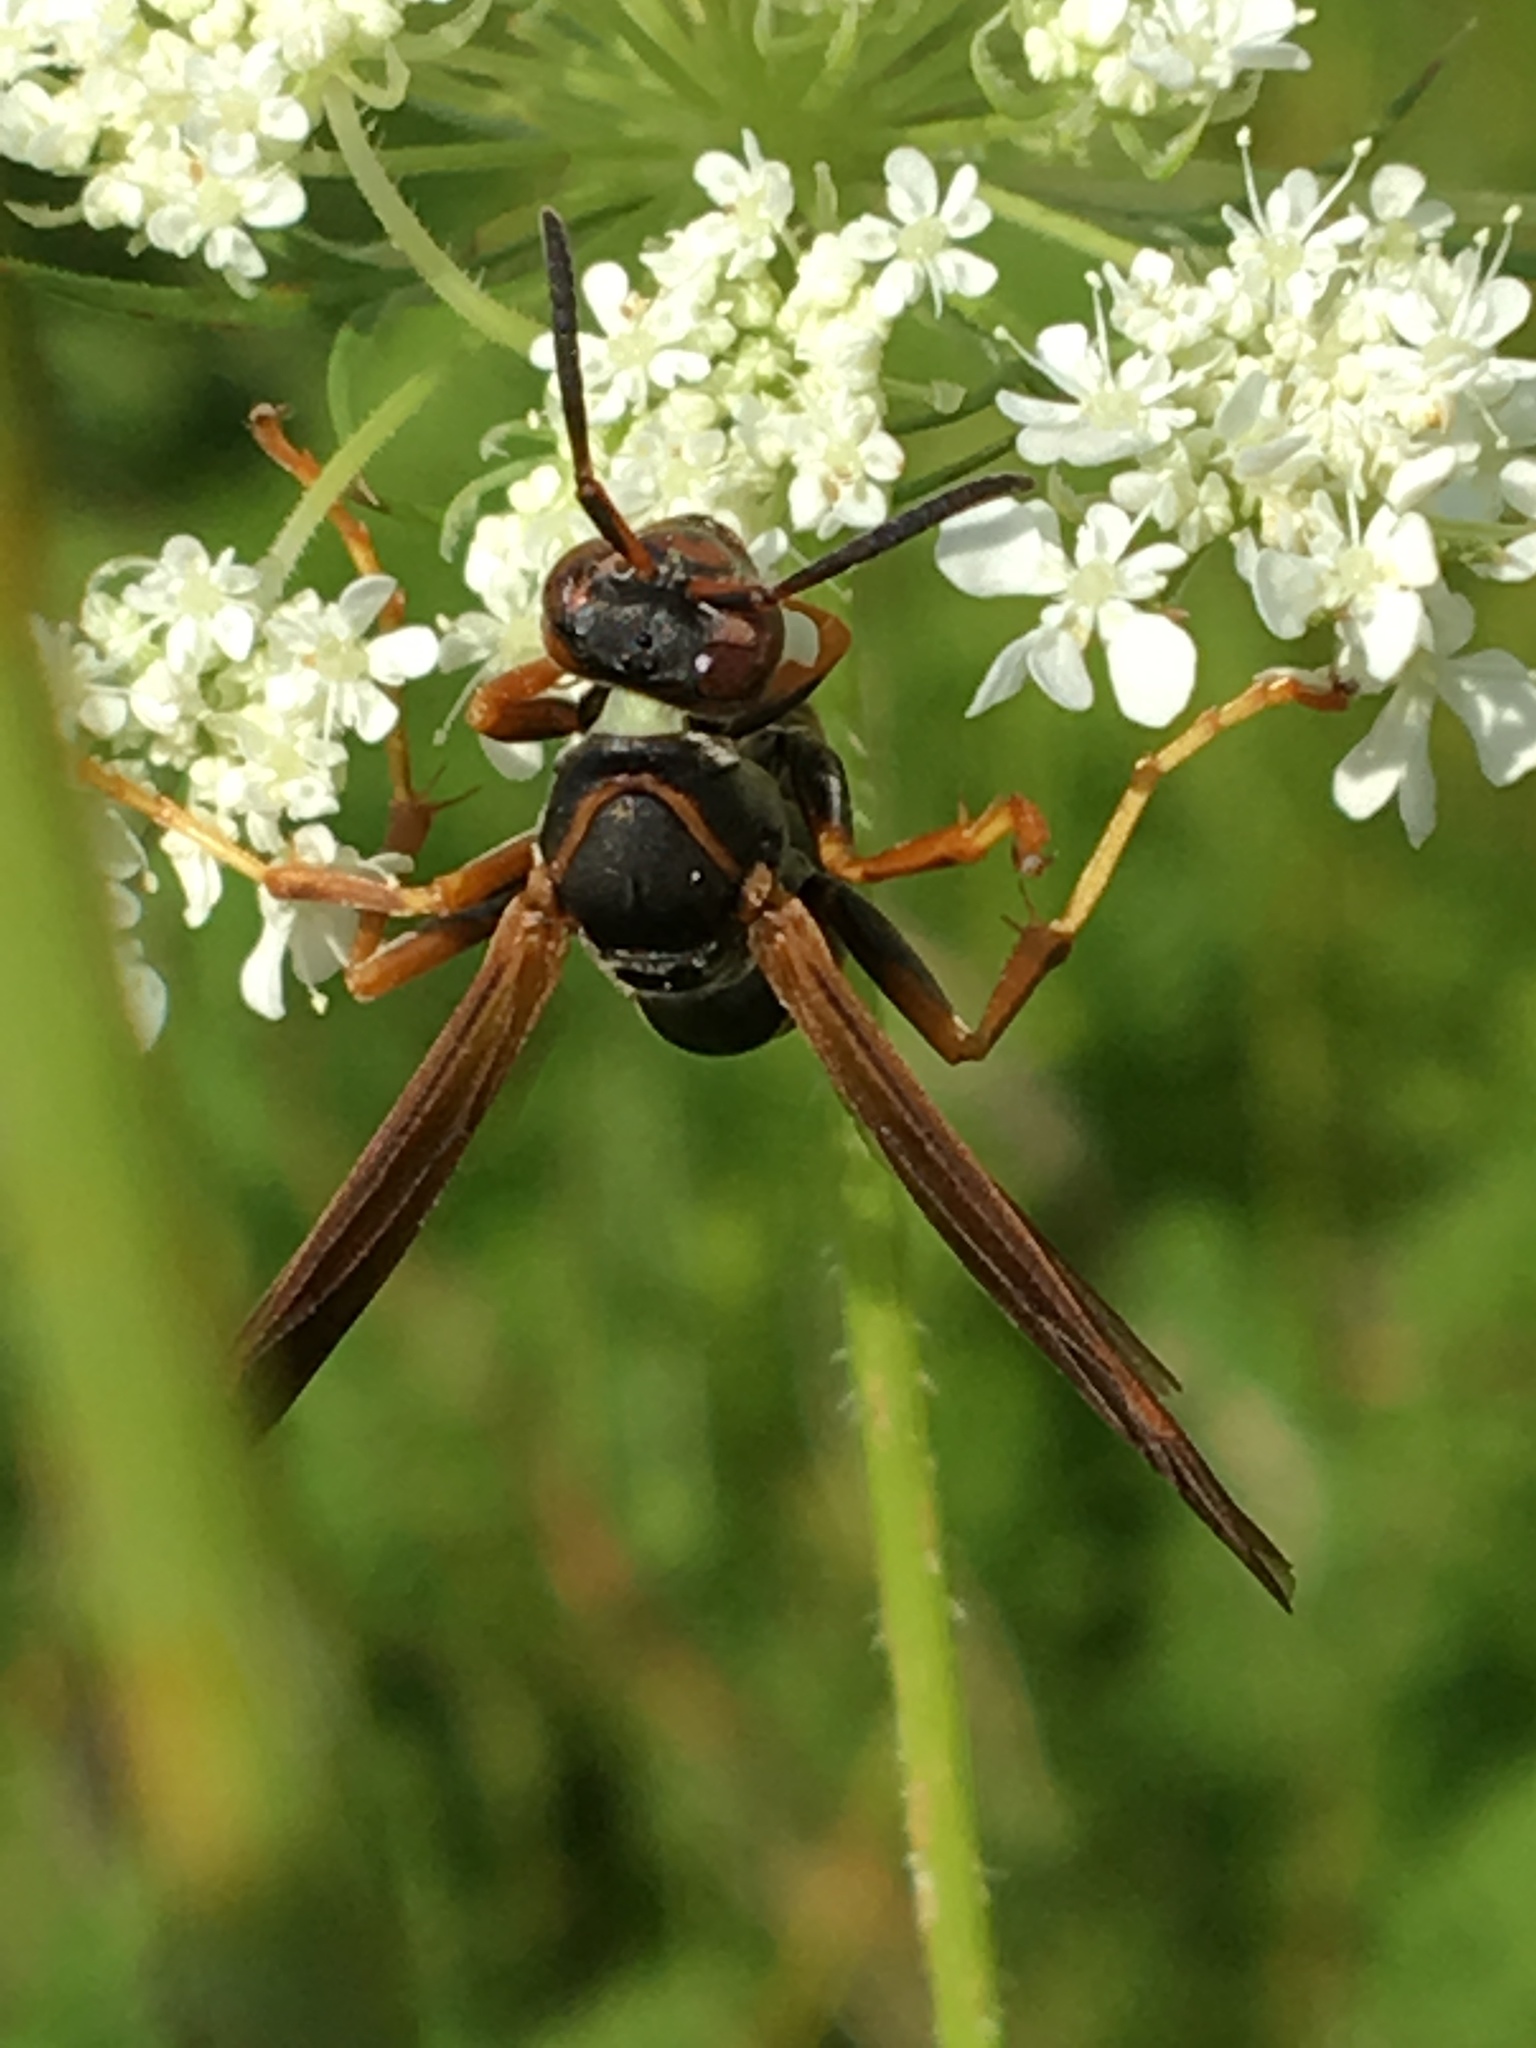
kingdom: Animalia
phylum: Arthropoda
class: Insecta
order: Hymenoptera
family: Eumenidae
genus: Polistes
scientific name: Polistes fuscatus
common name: Dark paper wasp
